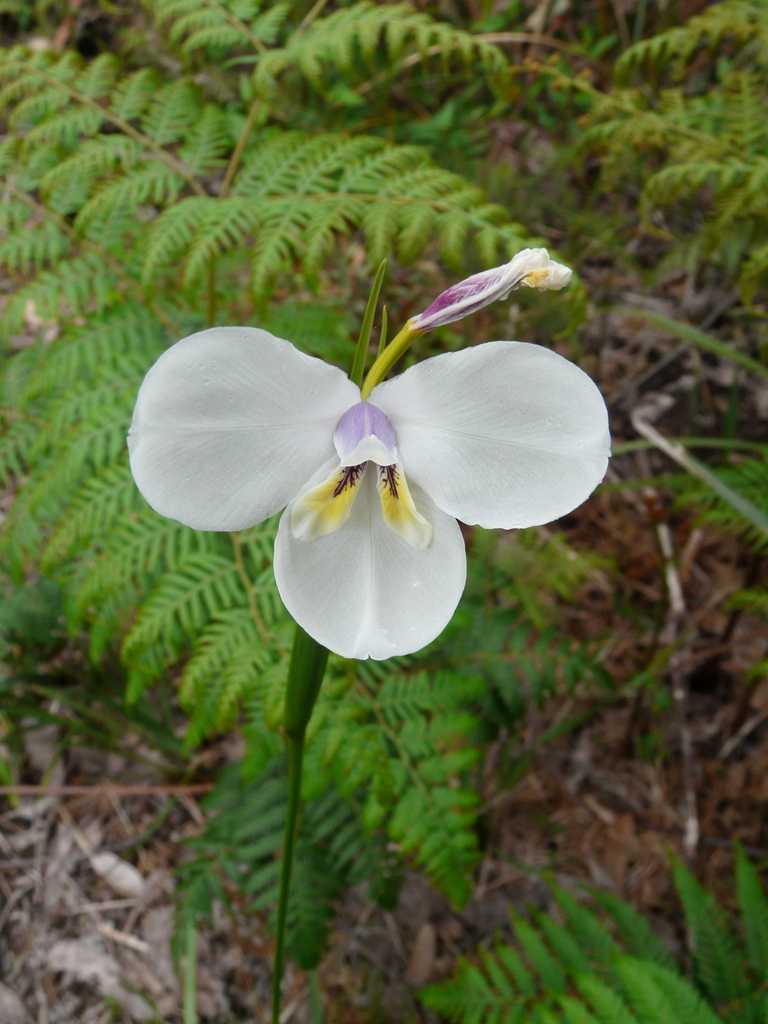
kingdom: Plantae
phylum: Tracheophyta
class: Liliopsida
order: Asparagales
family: Iridaceae
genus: Diplarrena
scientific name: Diplarrena moraea
